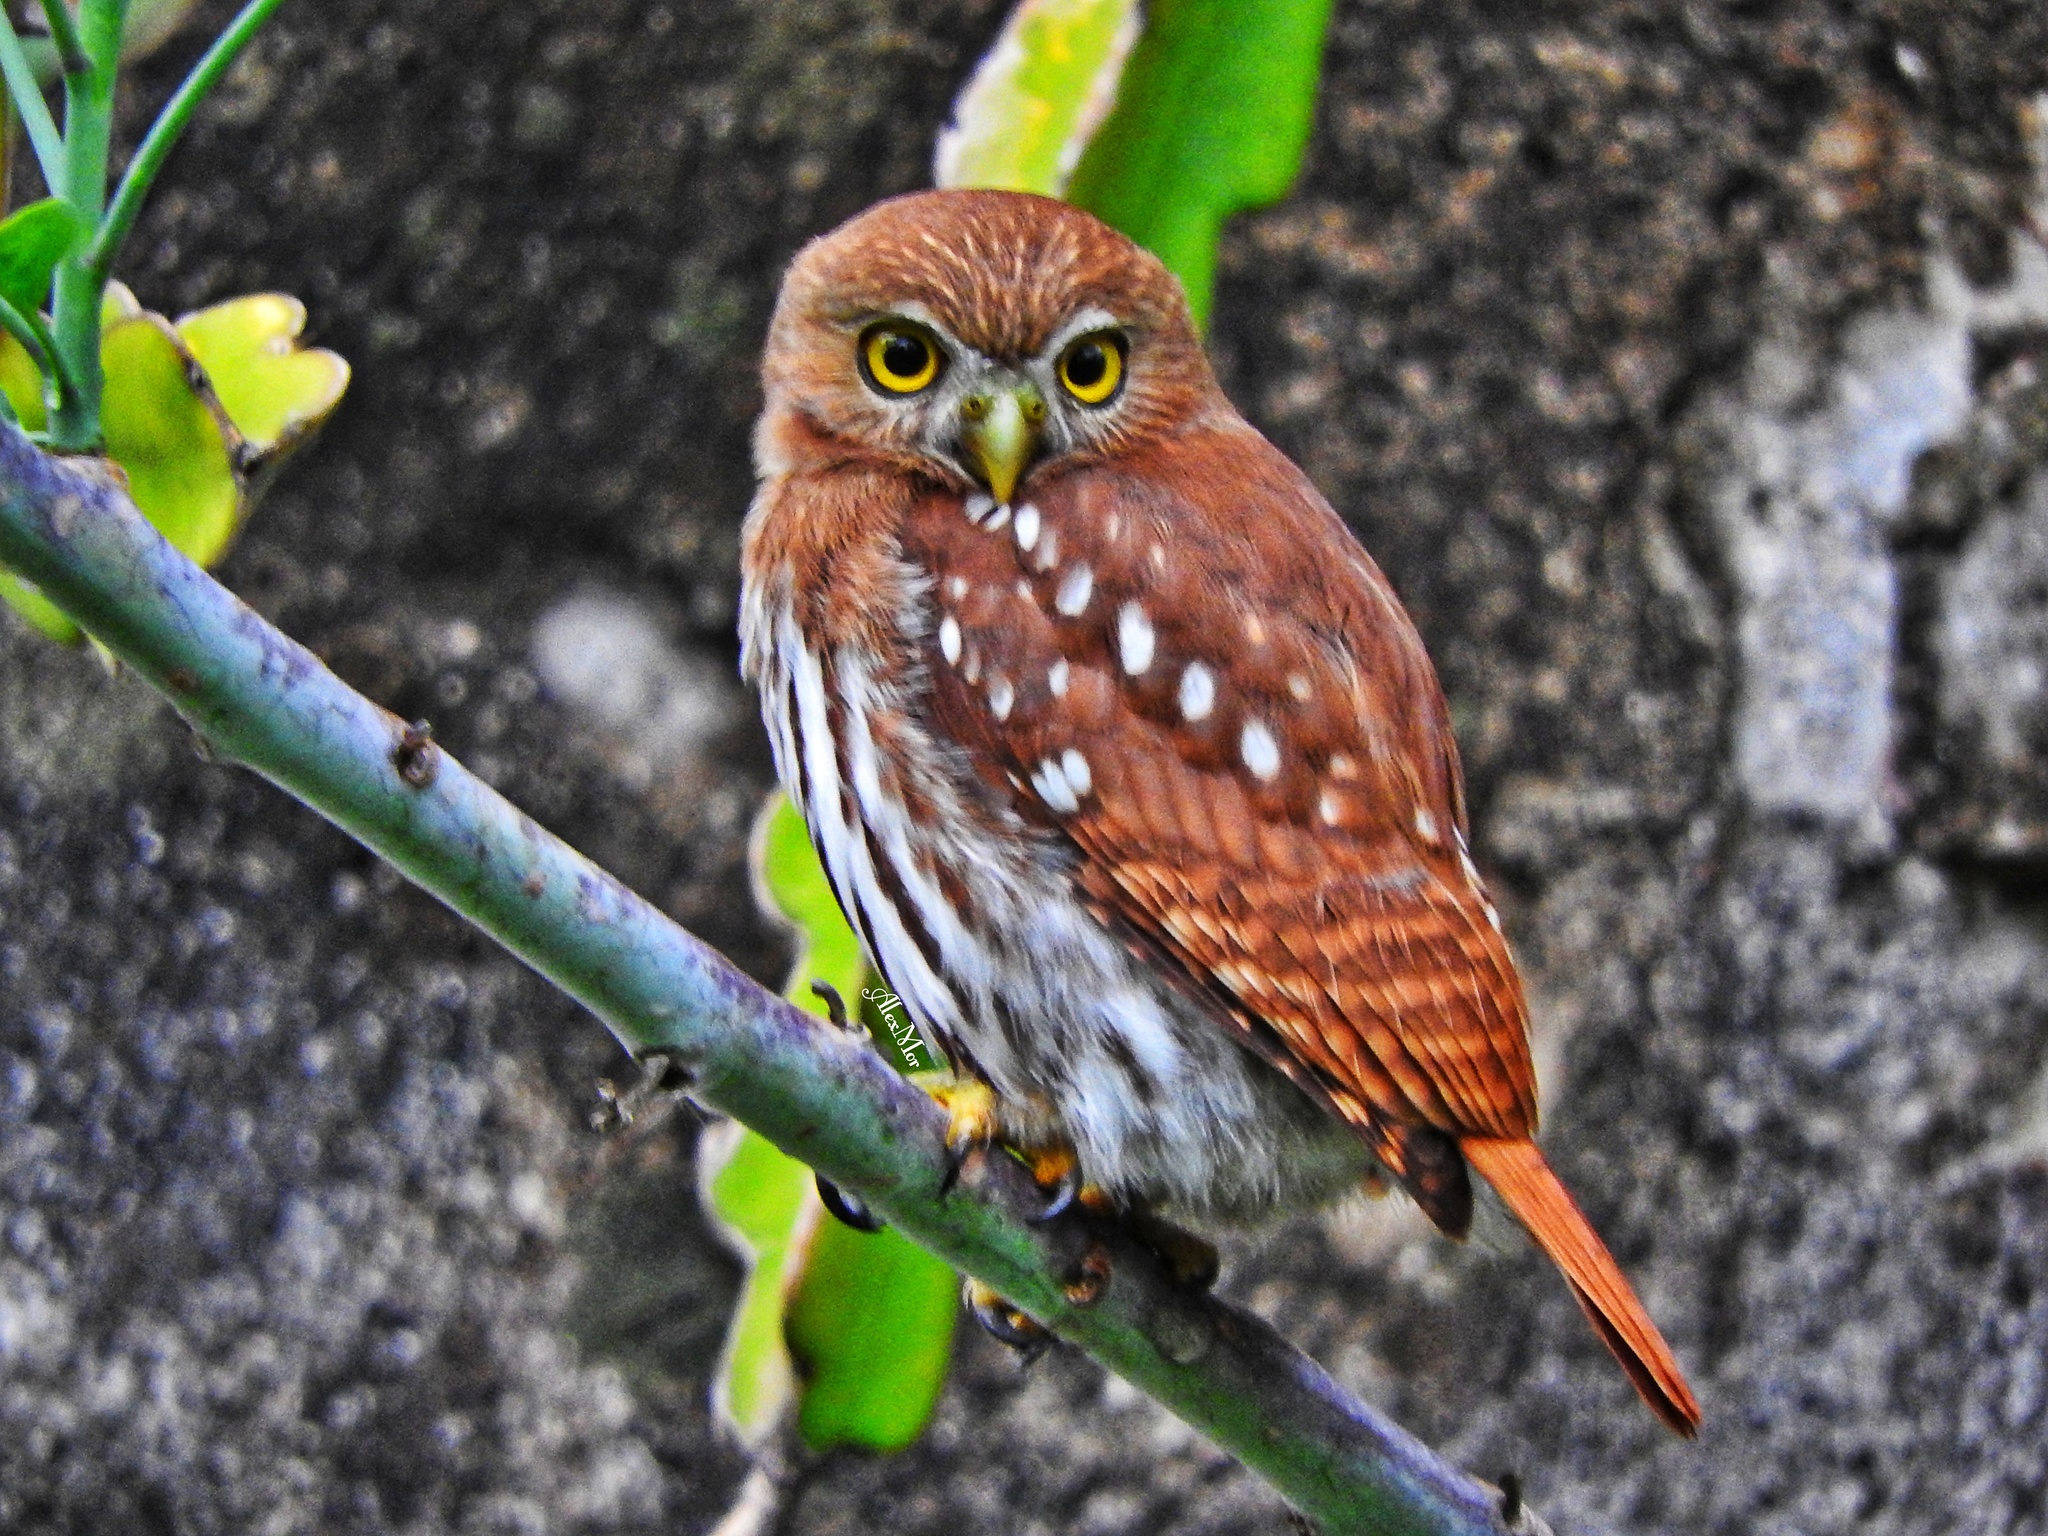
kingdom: Animalia
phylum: Chordata
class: Aves
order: Strigiformes
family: Strigidae
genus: Glaucidium
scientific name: Glaucidium brasilianum
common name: Ferruginous pygmy-owl
